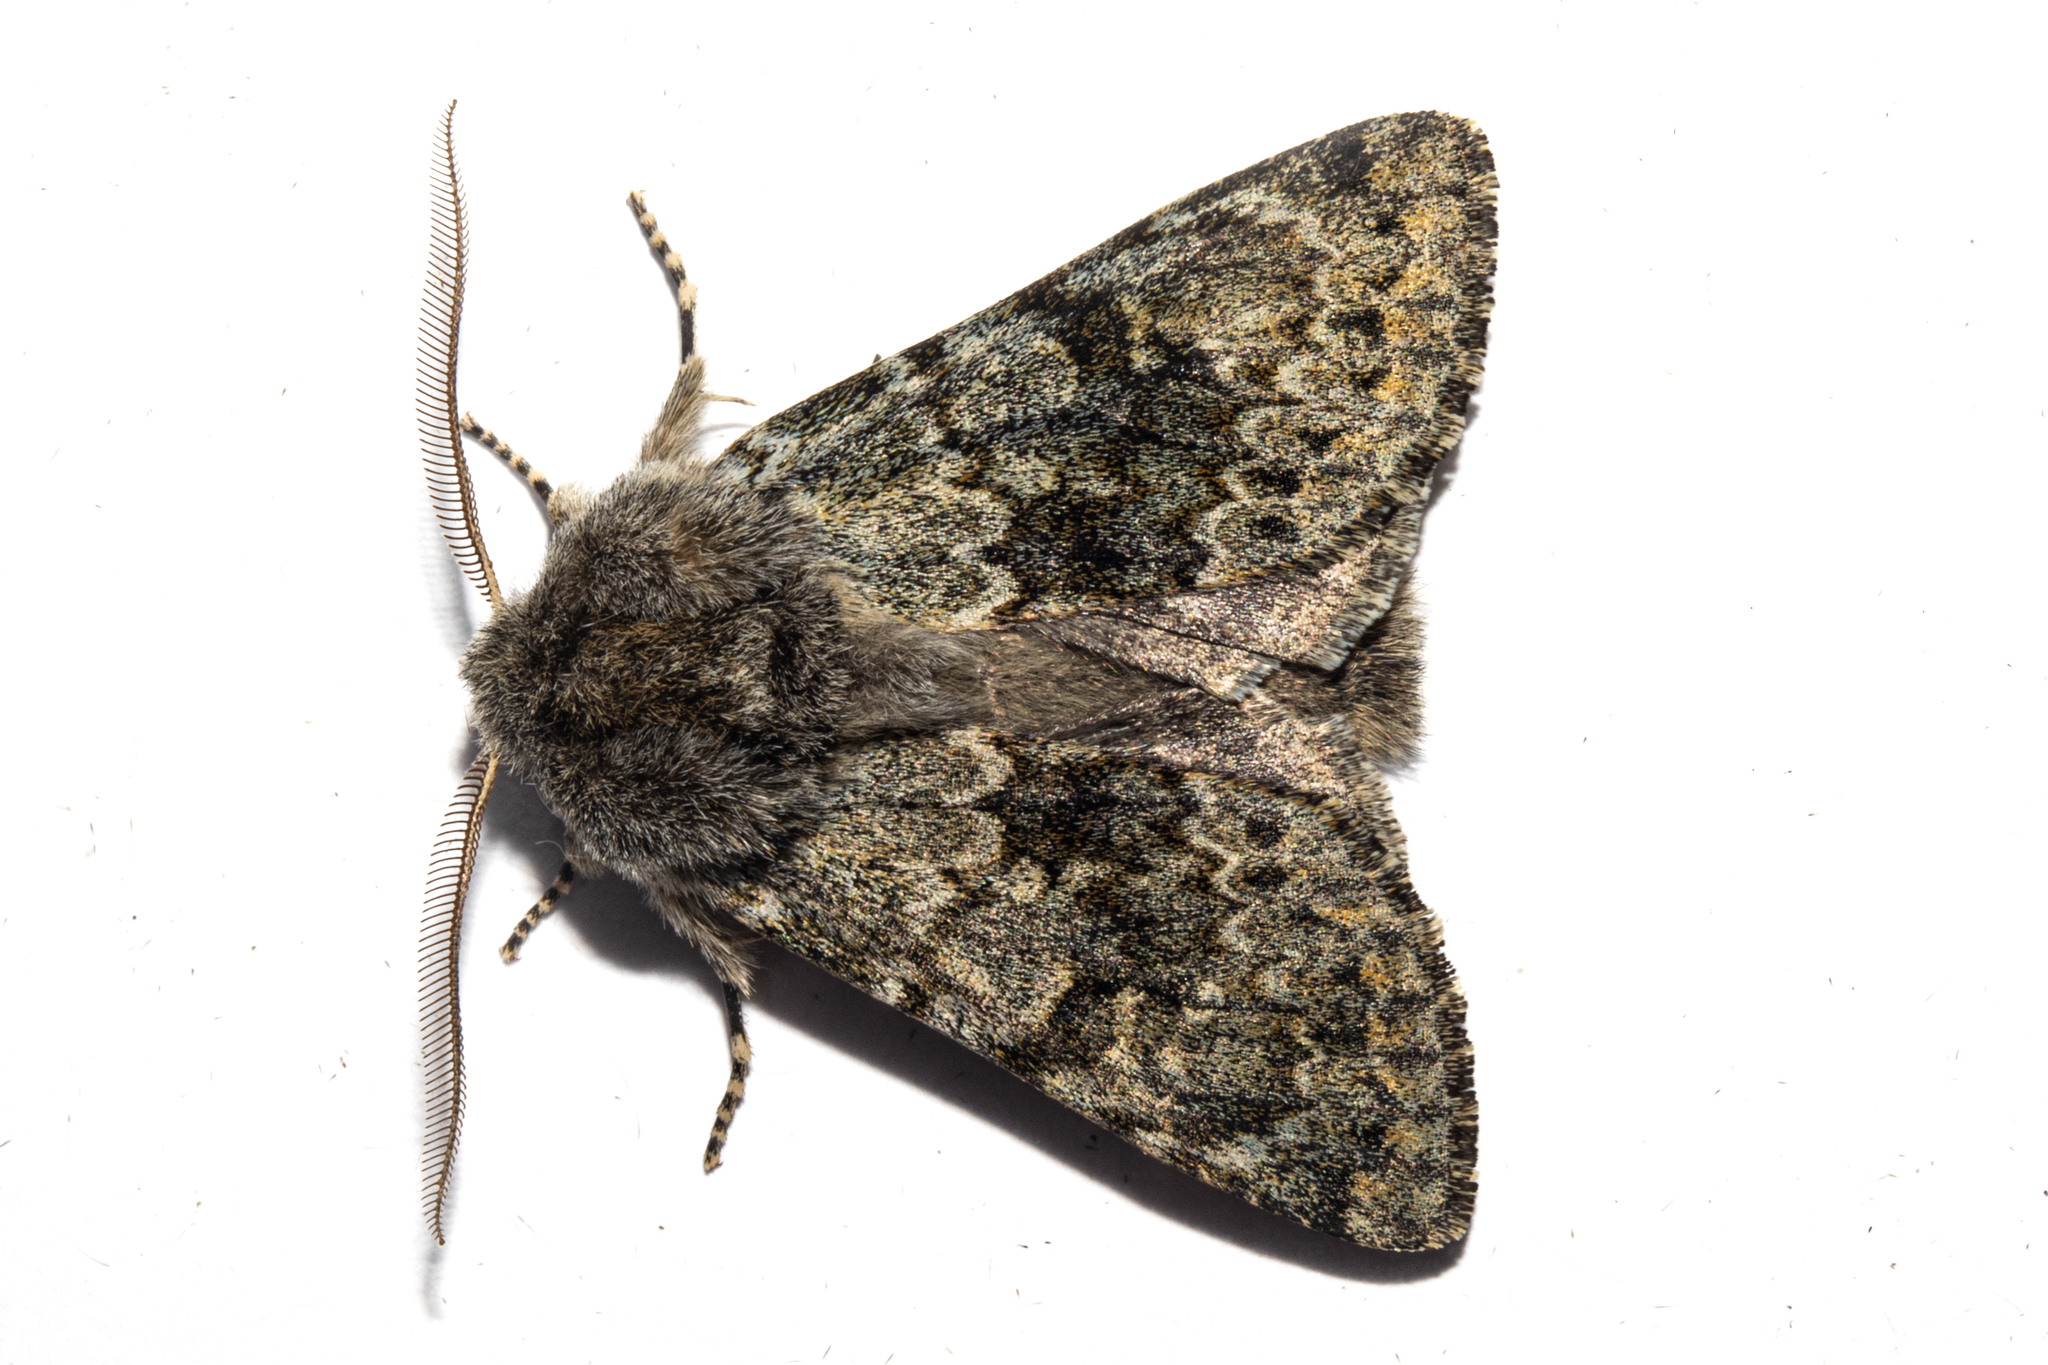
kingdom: Animalia
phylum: Arthropoda
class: Insecta
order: Lepidoptera
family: Noctuidae
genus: Ichneutica
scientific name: Ichneutica cana
